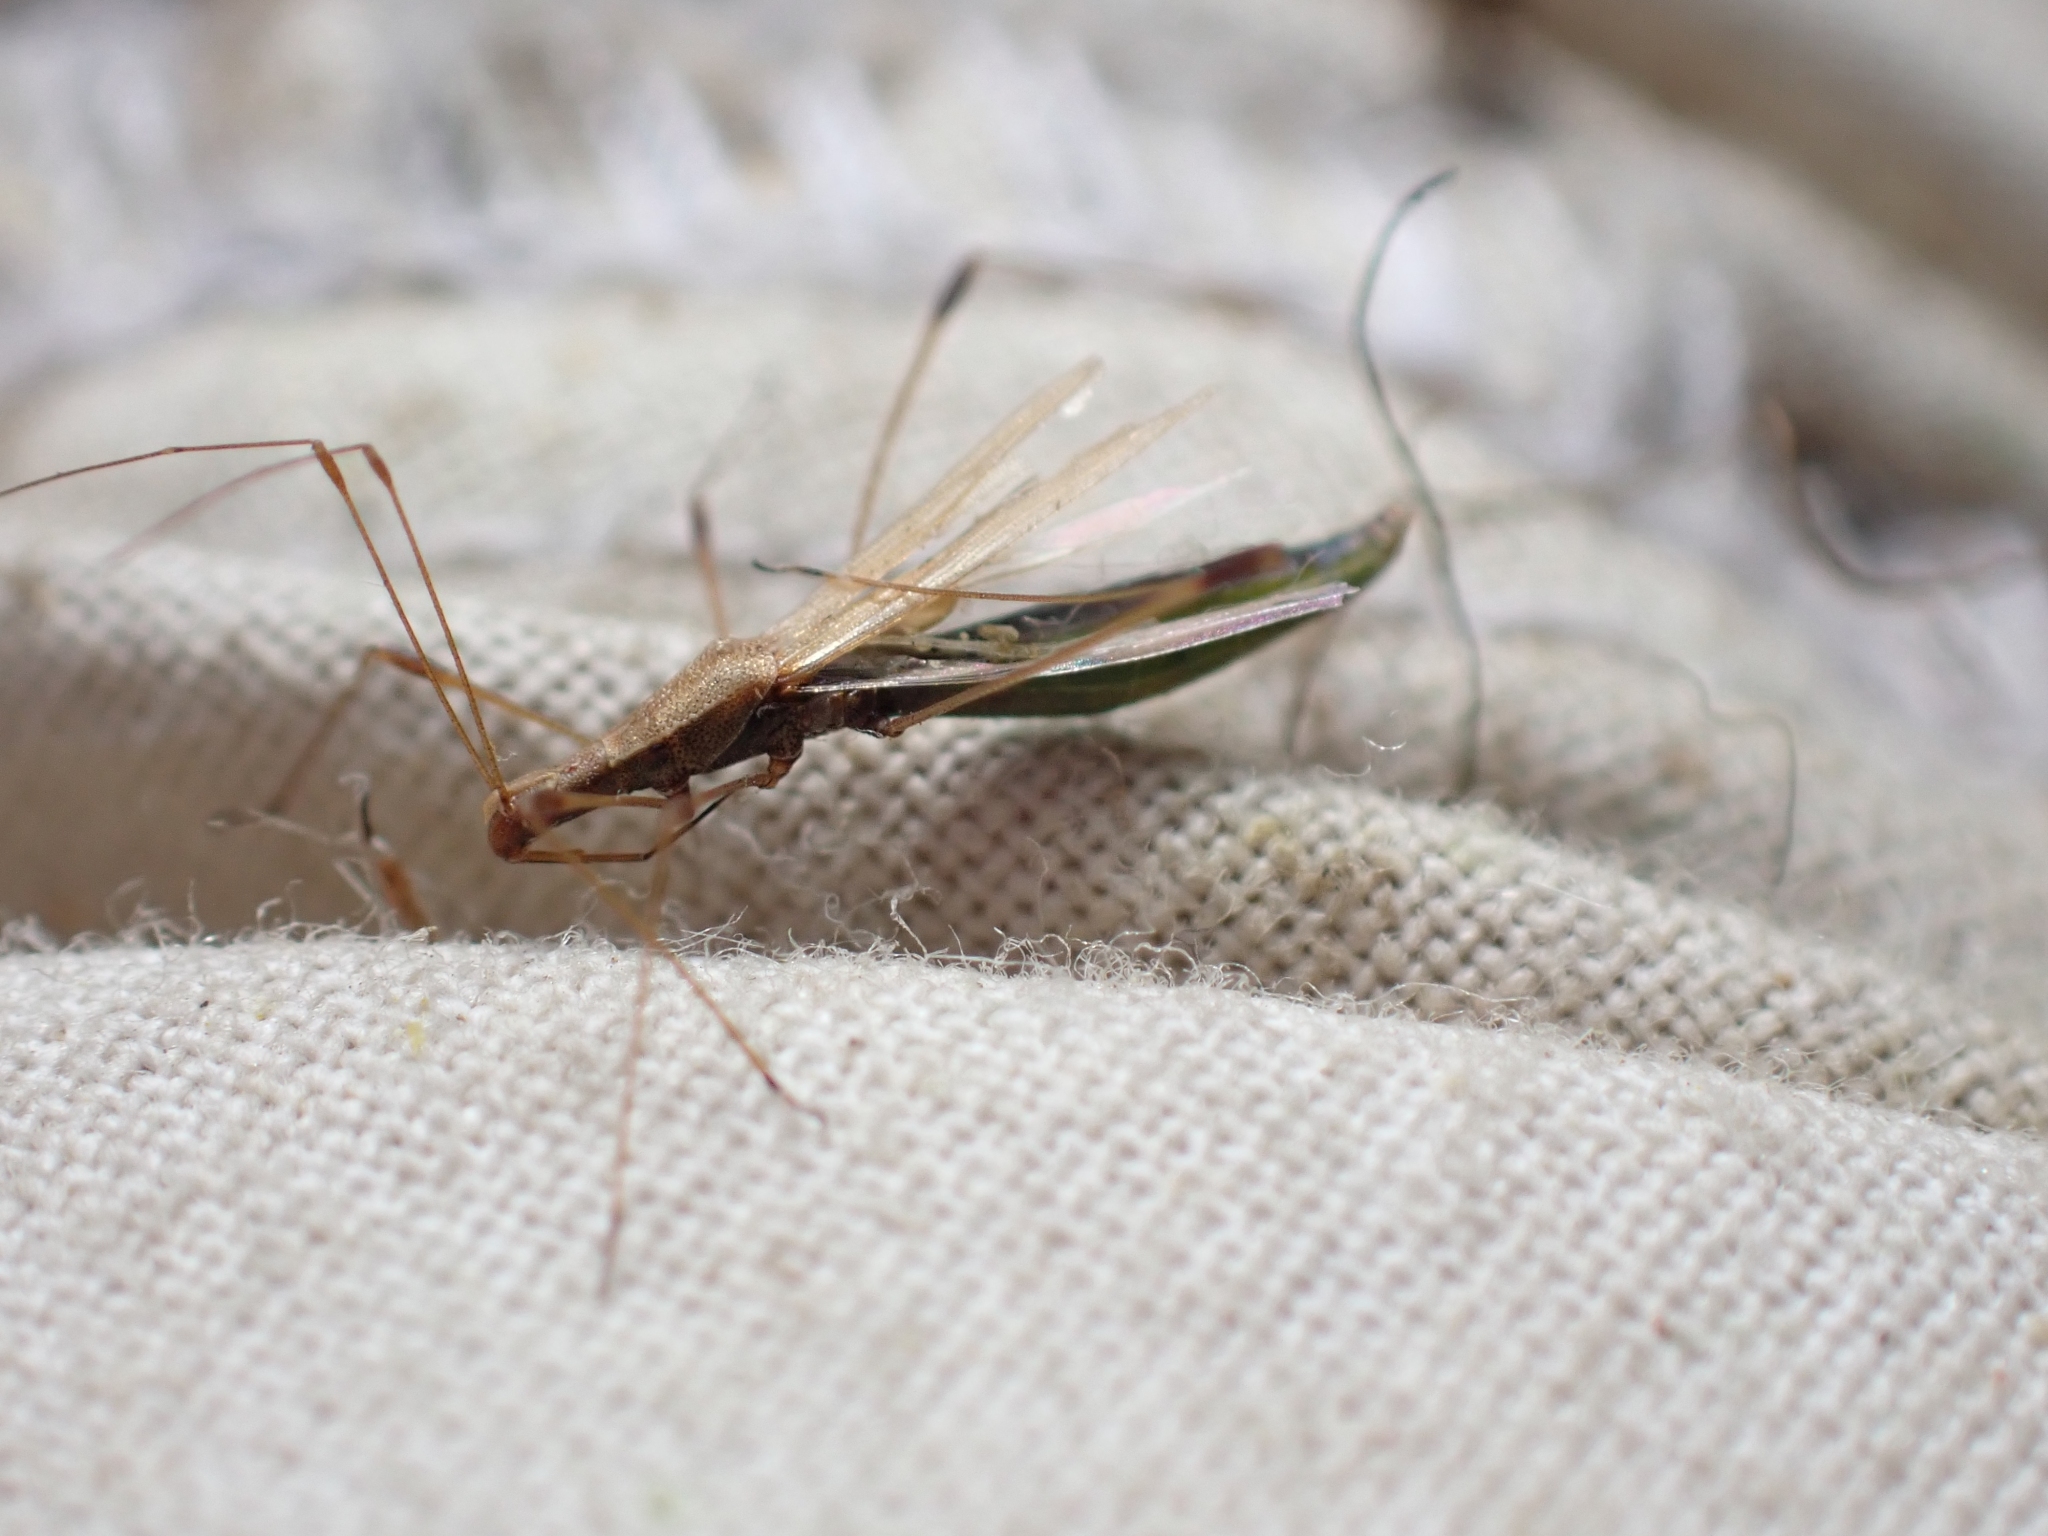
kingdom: Animalia
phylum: Arthropoda
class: Insecta
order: Hemiptera
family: Berytidae
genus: Neoneides
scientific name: Neoneides muticus
